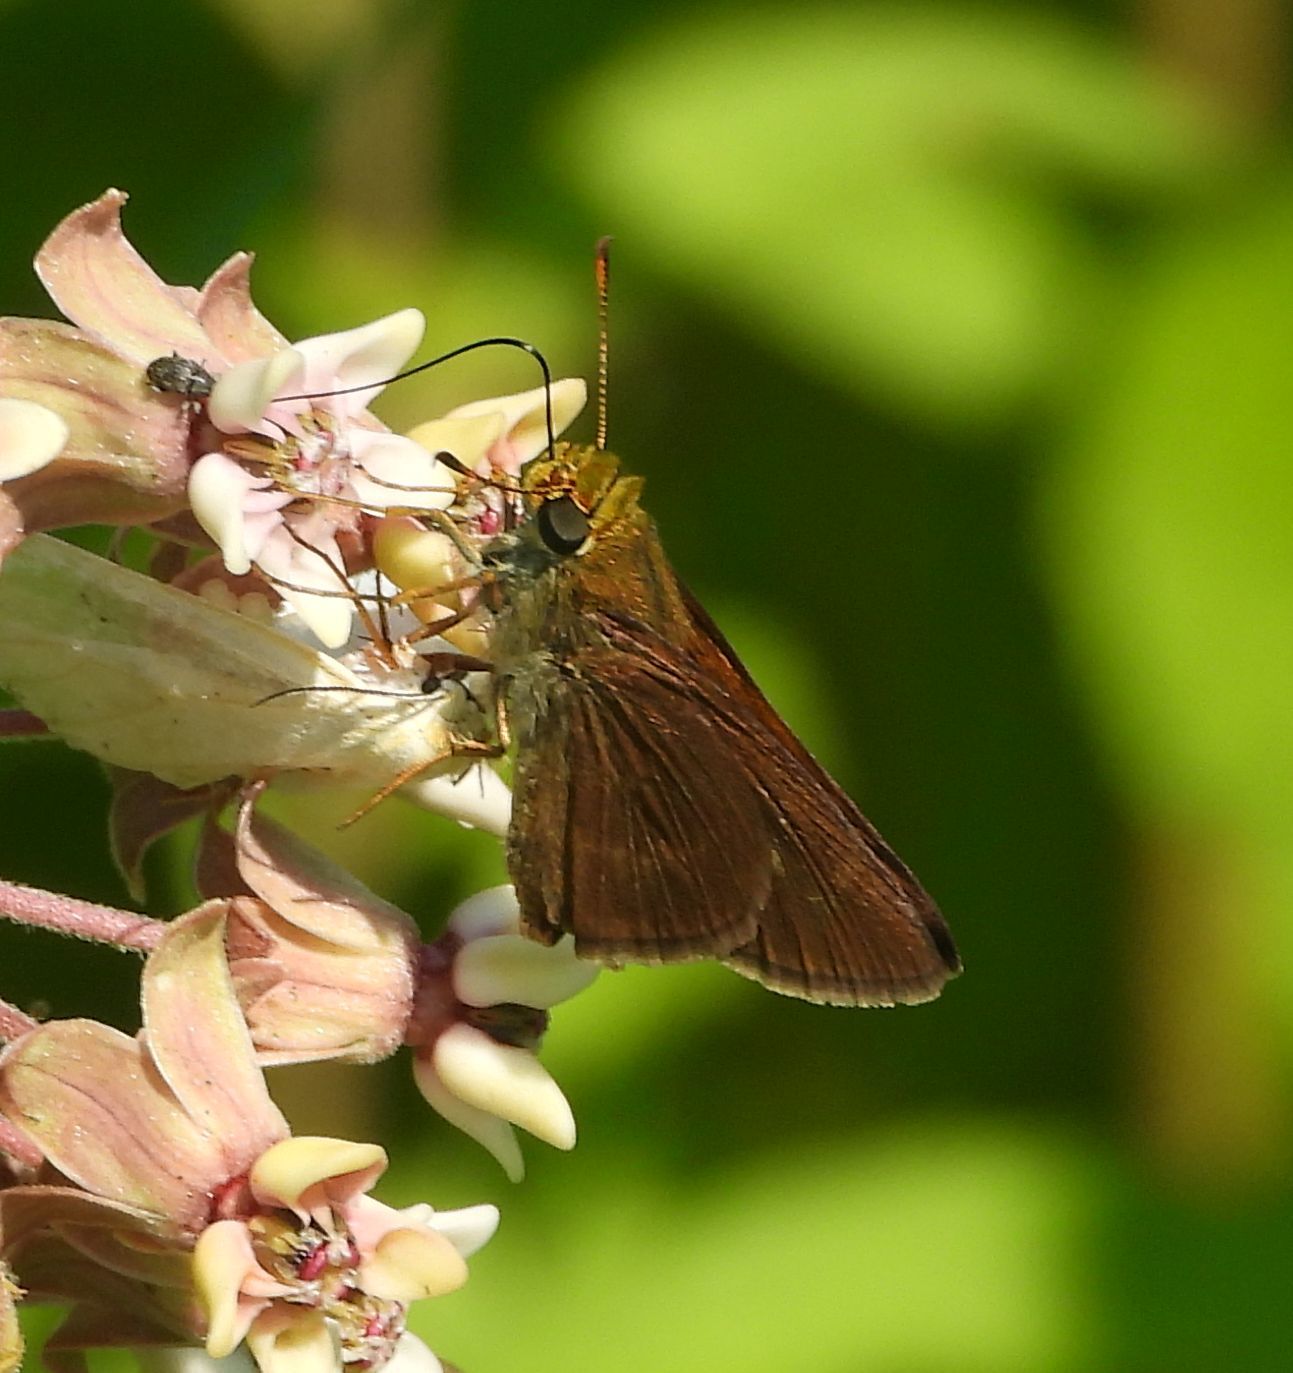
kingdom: Animalia
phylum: Arthropoda
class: Insecta
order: Lepidoptera
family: Hesperiidae
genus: Euphyes
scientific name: Euphyes vestris
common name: Dun skipper
